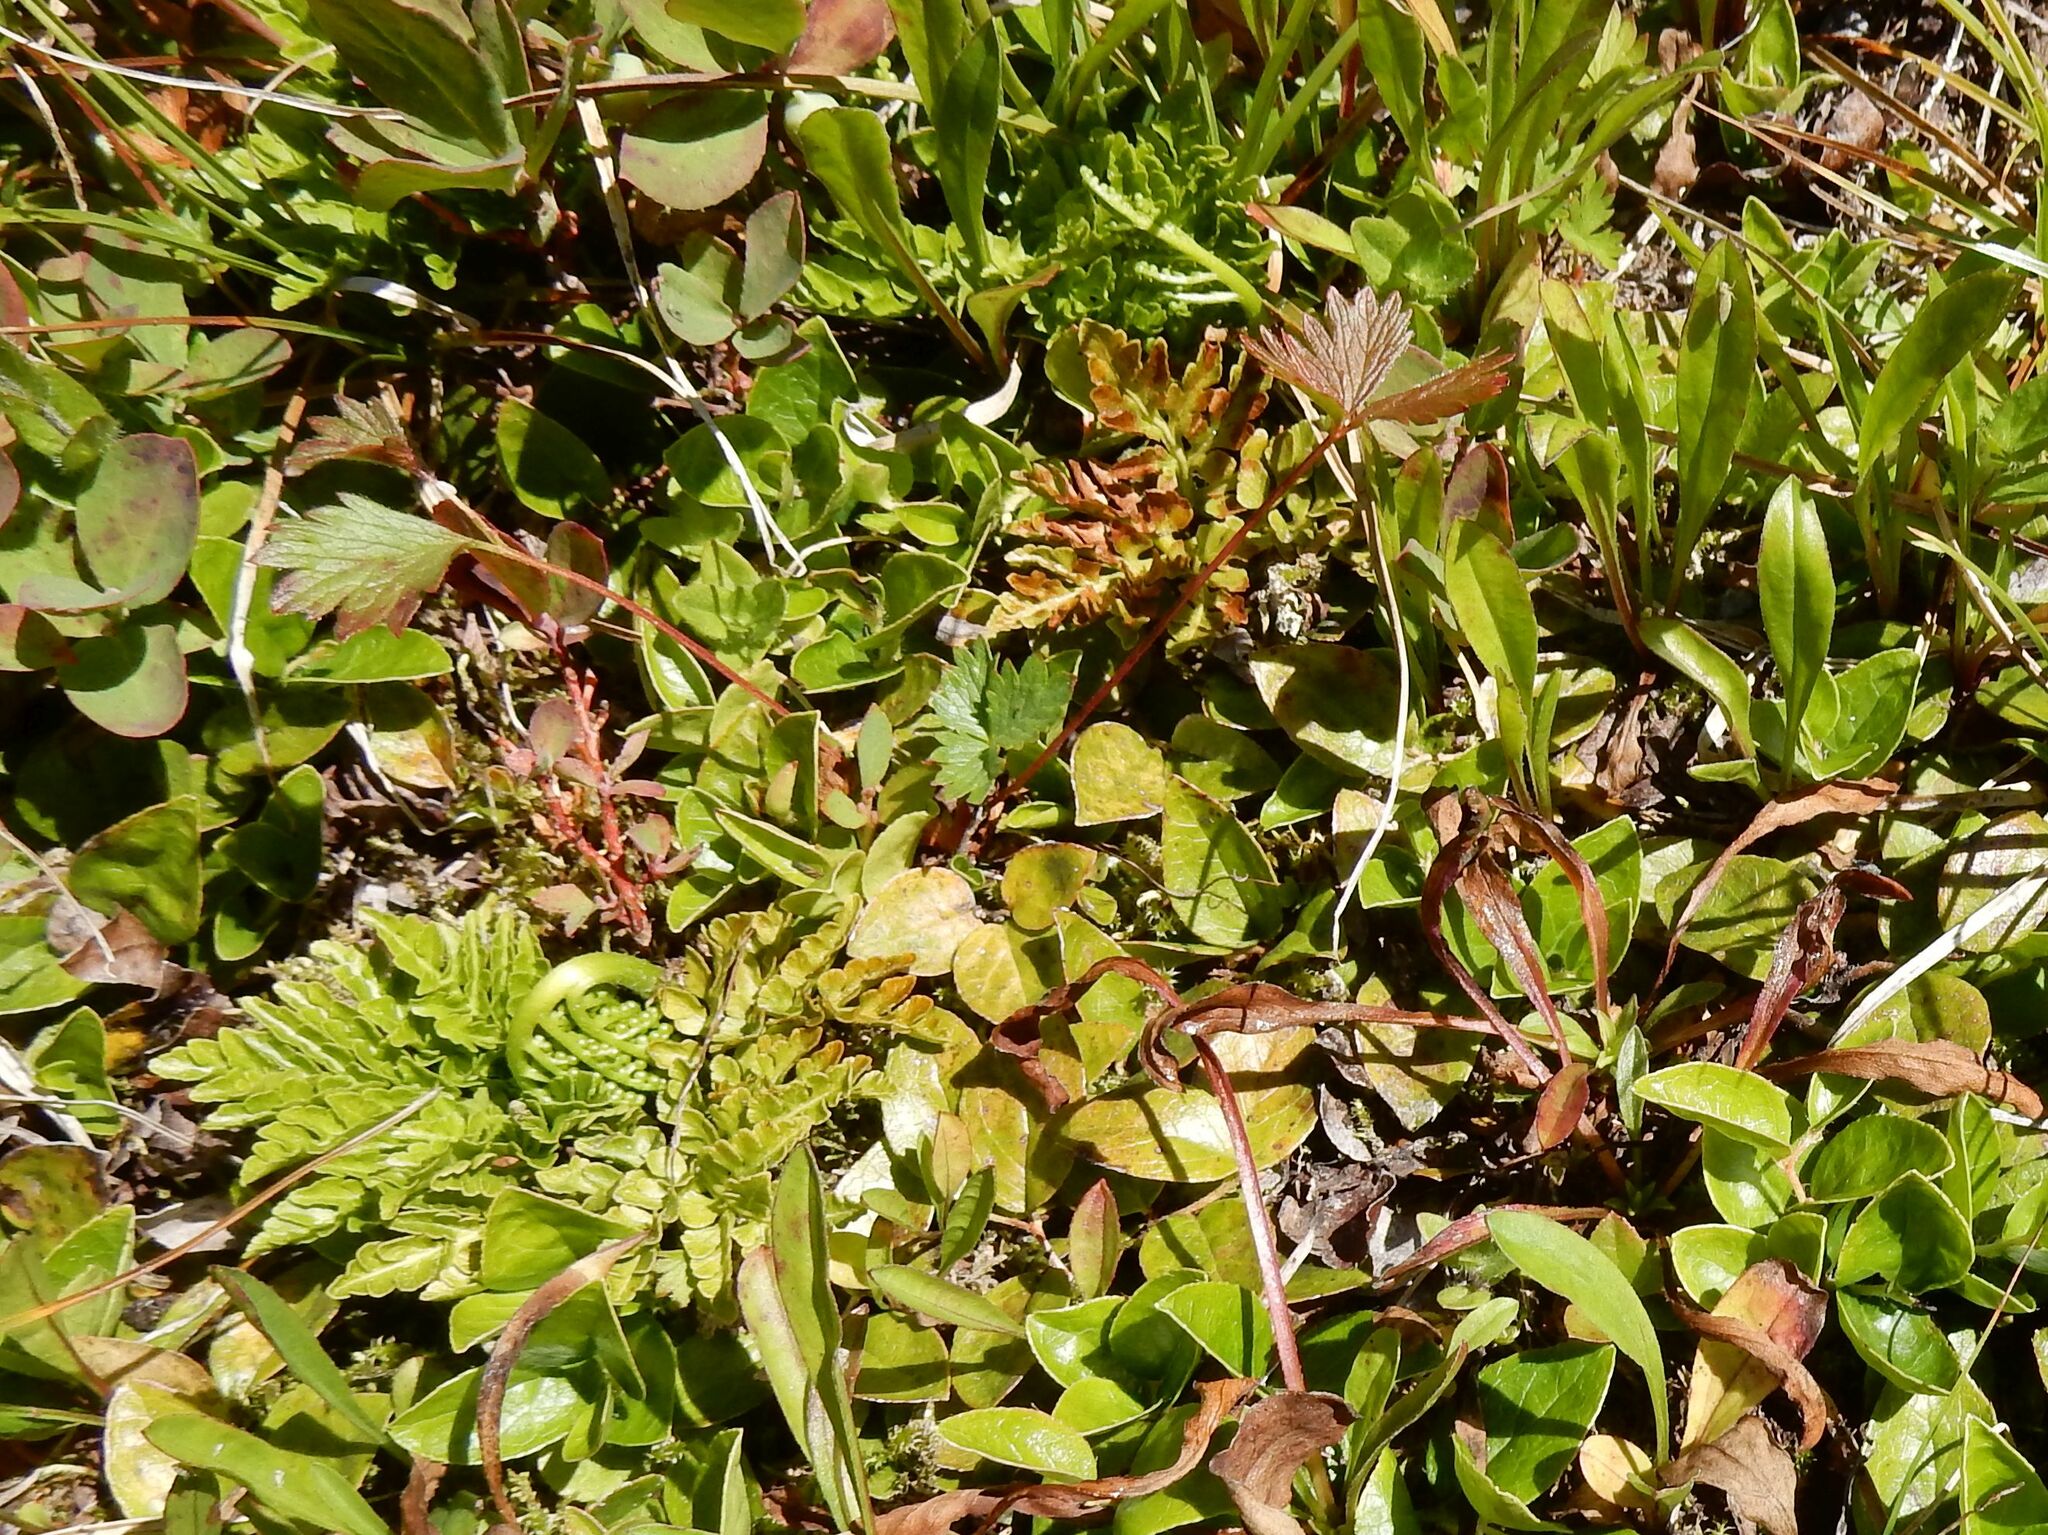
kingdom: Plantae
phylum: Tracheophyta
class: Polypodiopsida
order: Ophioglossales
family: Ophioglossaceae
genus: Sceptridium
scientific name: Sceptridium multifidum
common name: Leathery grape fern
